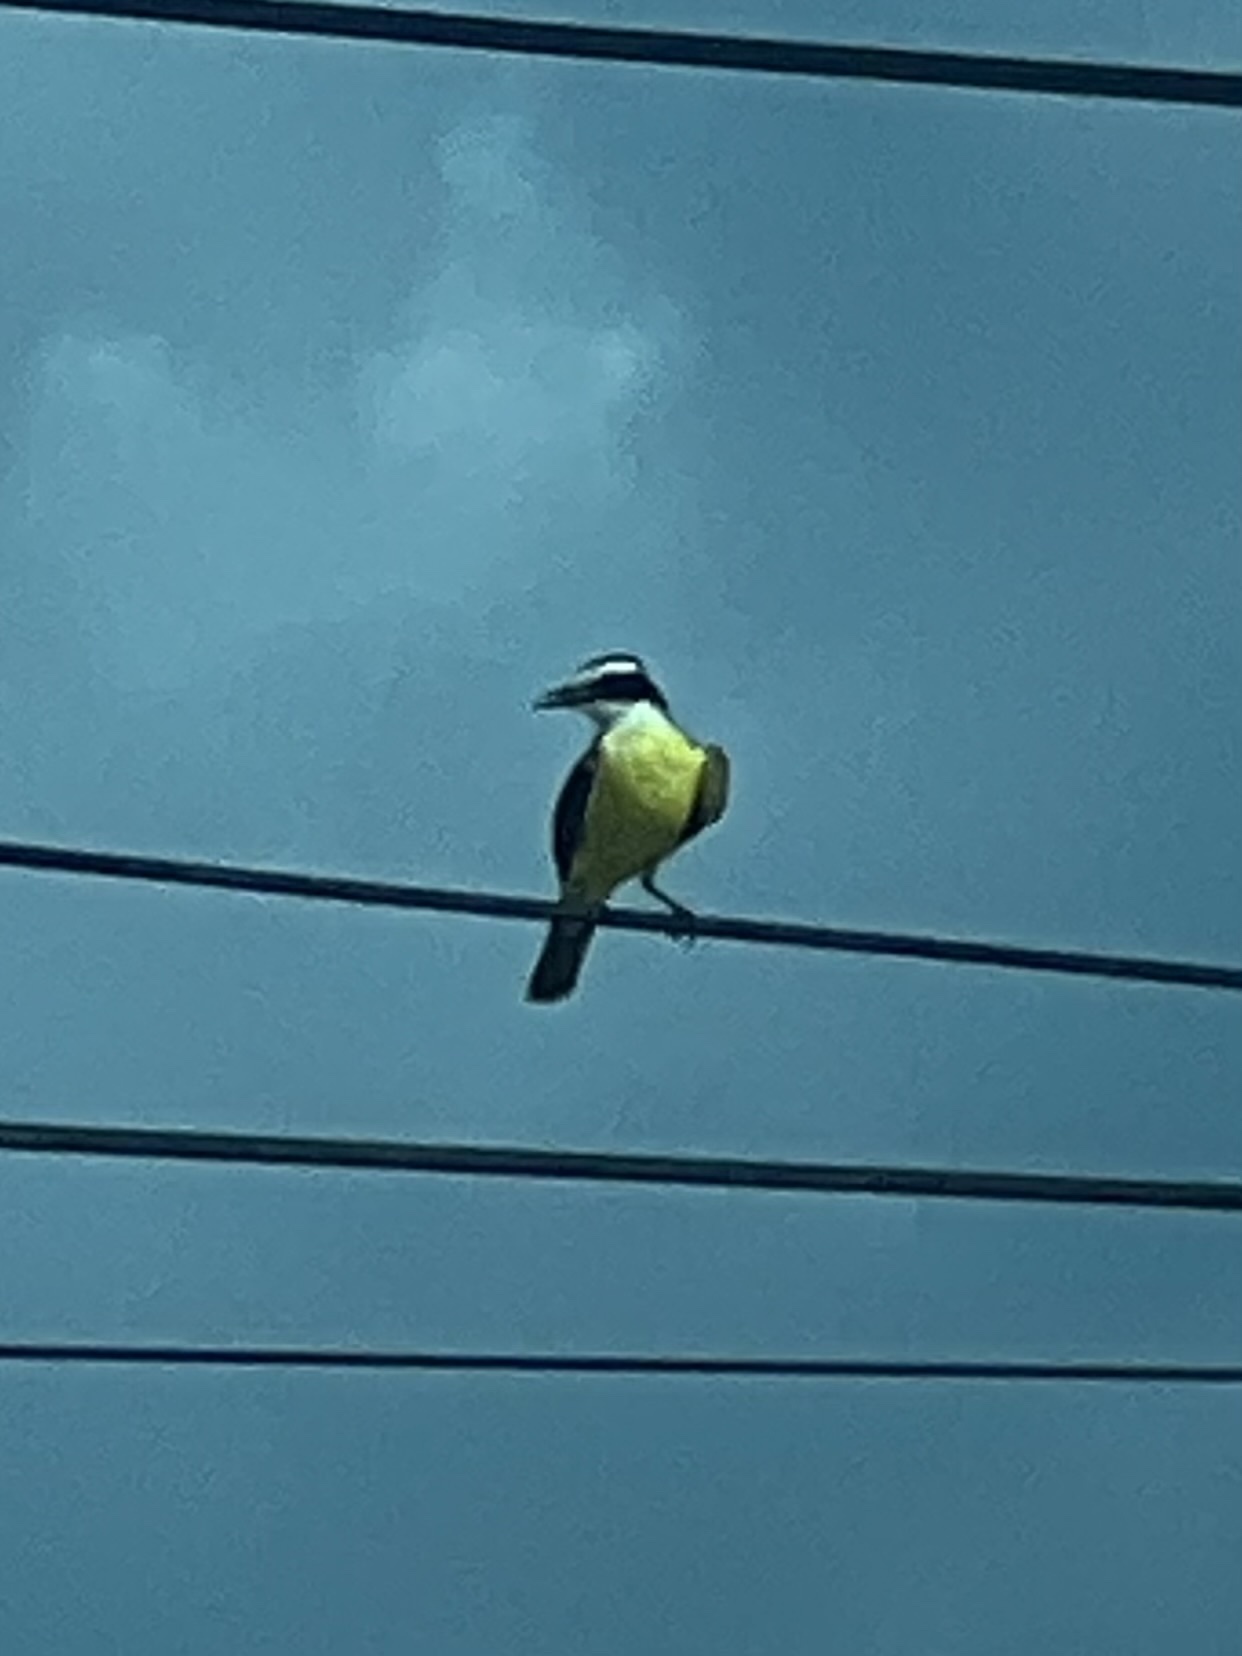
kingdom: Animalia
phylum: Chordata
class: Aves
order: Passeriformes
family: Tyrannidae
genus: Pitangus
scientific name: Pitangus sulphuratus
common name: Great kiskadee
